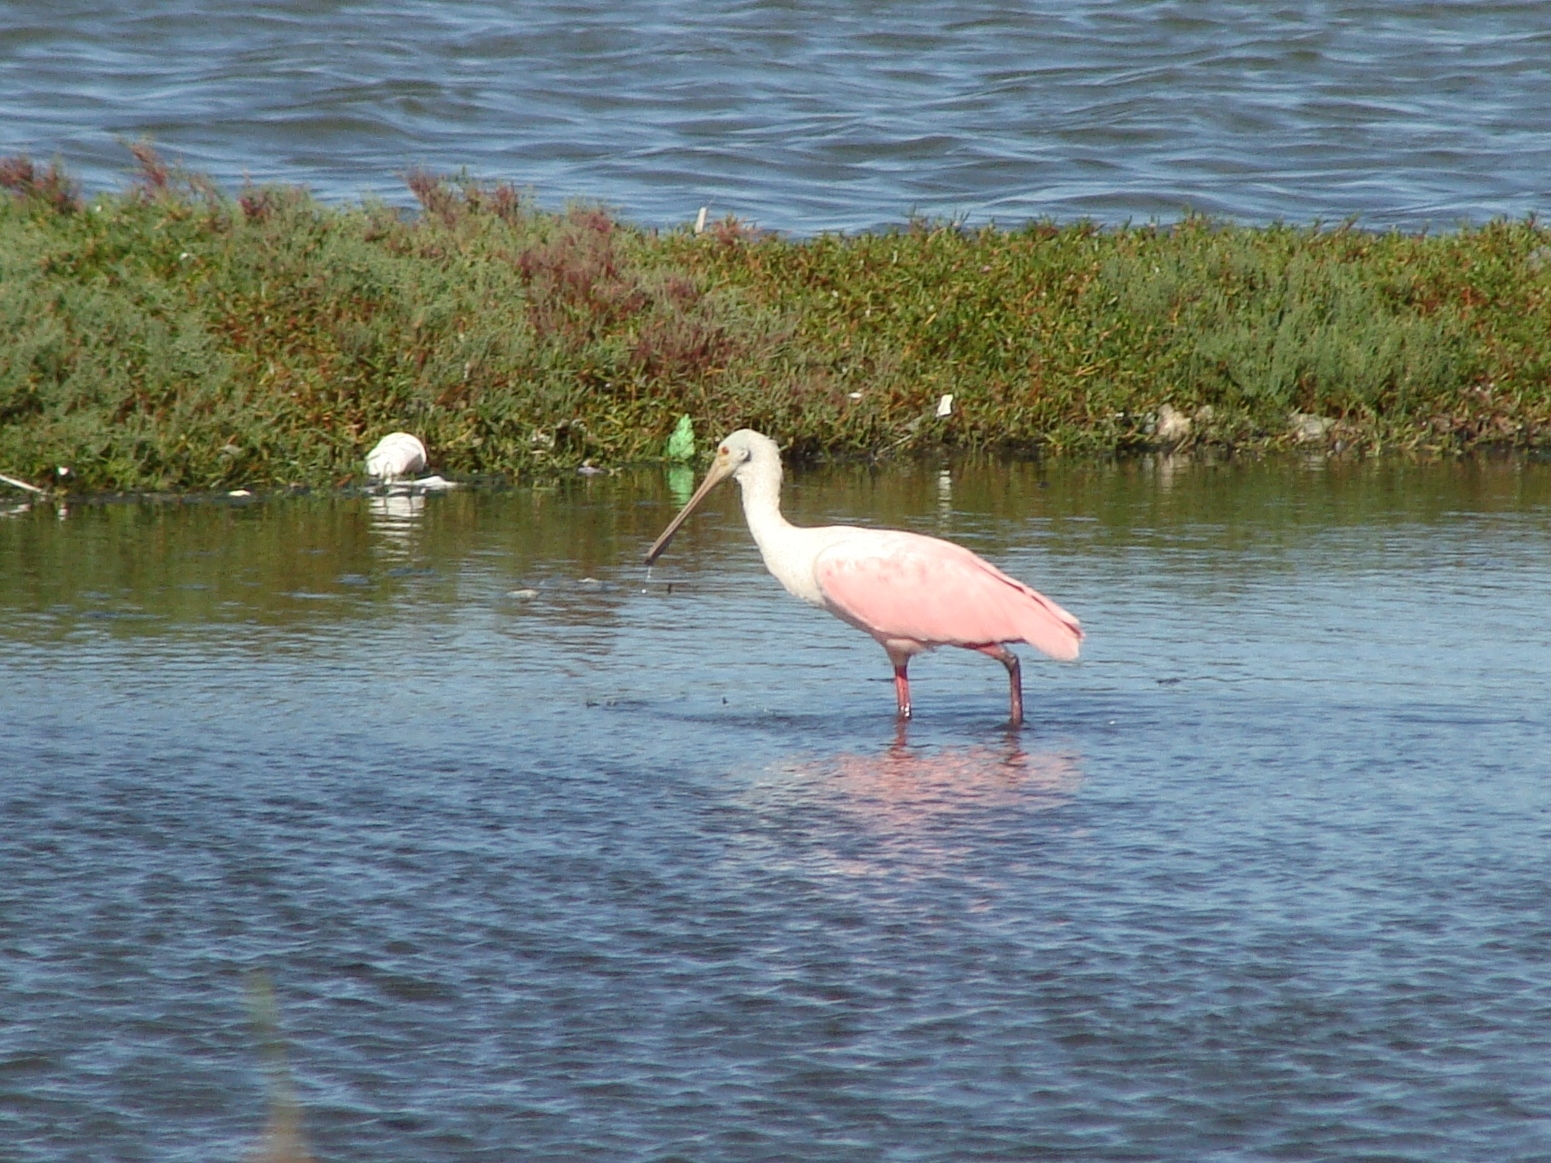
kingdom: Animalia
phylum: Chordata
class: Aves
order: Pelecaniformes
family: Threskiornithidae
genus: Platalea
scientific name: Platalea ajaja
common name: Roseate spoonbill
